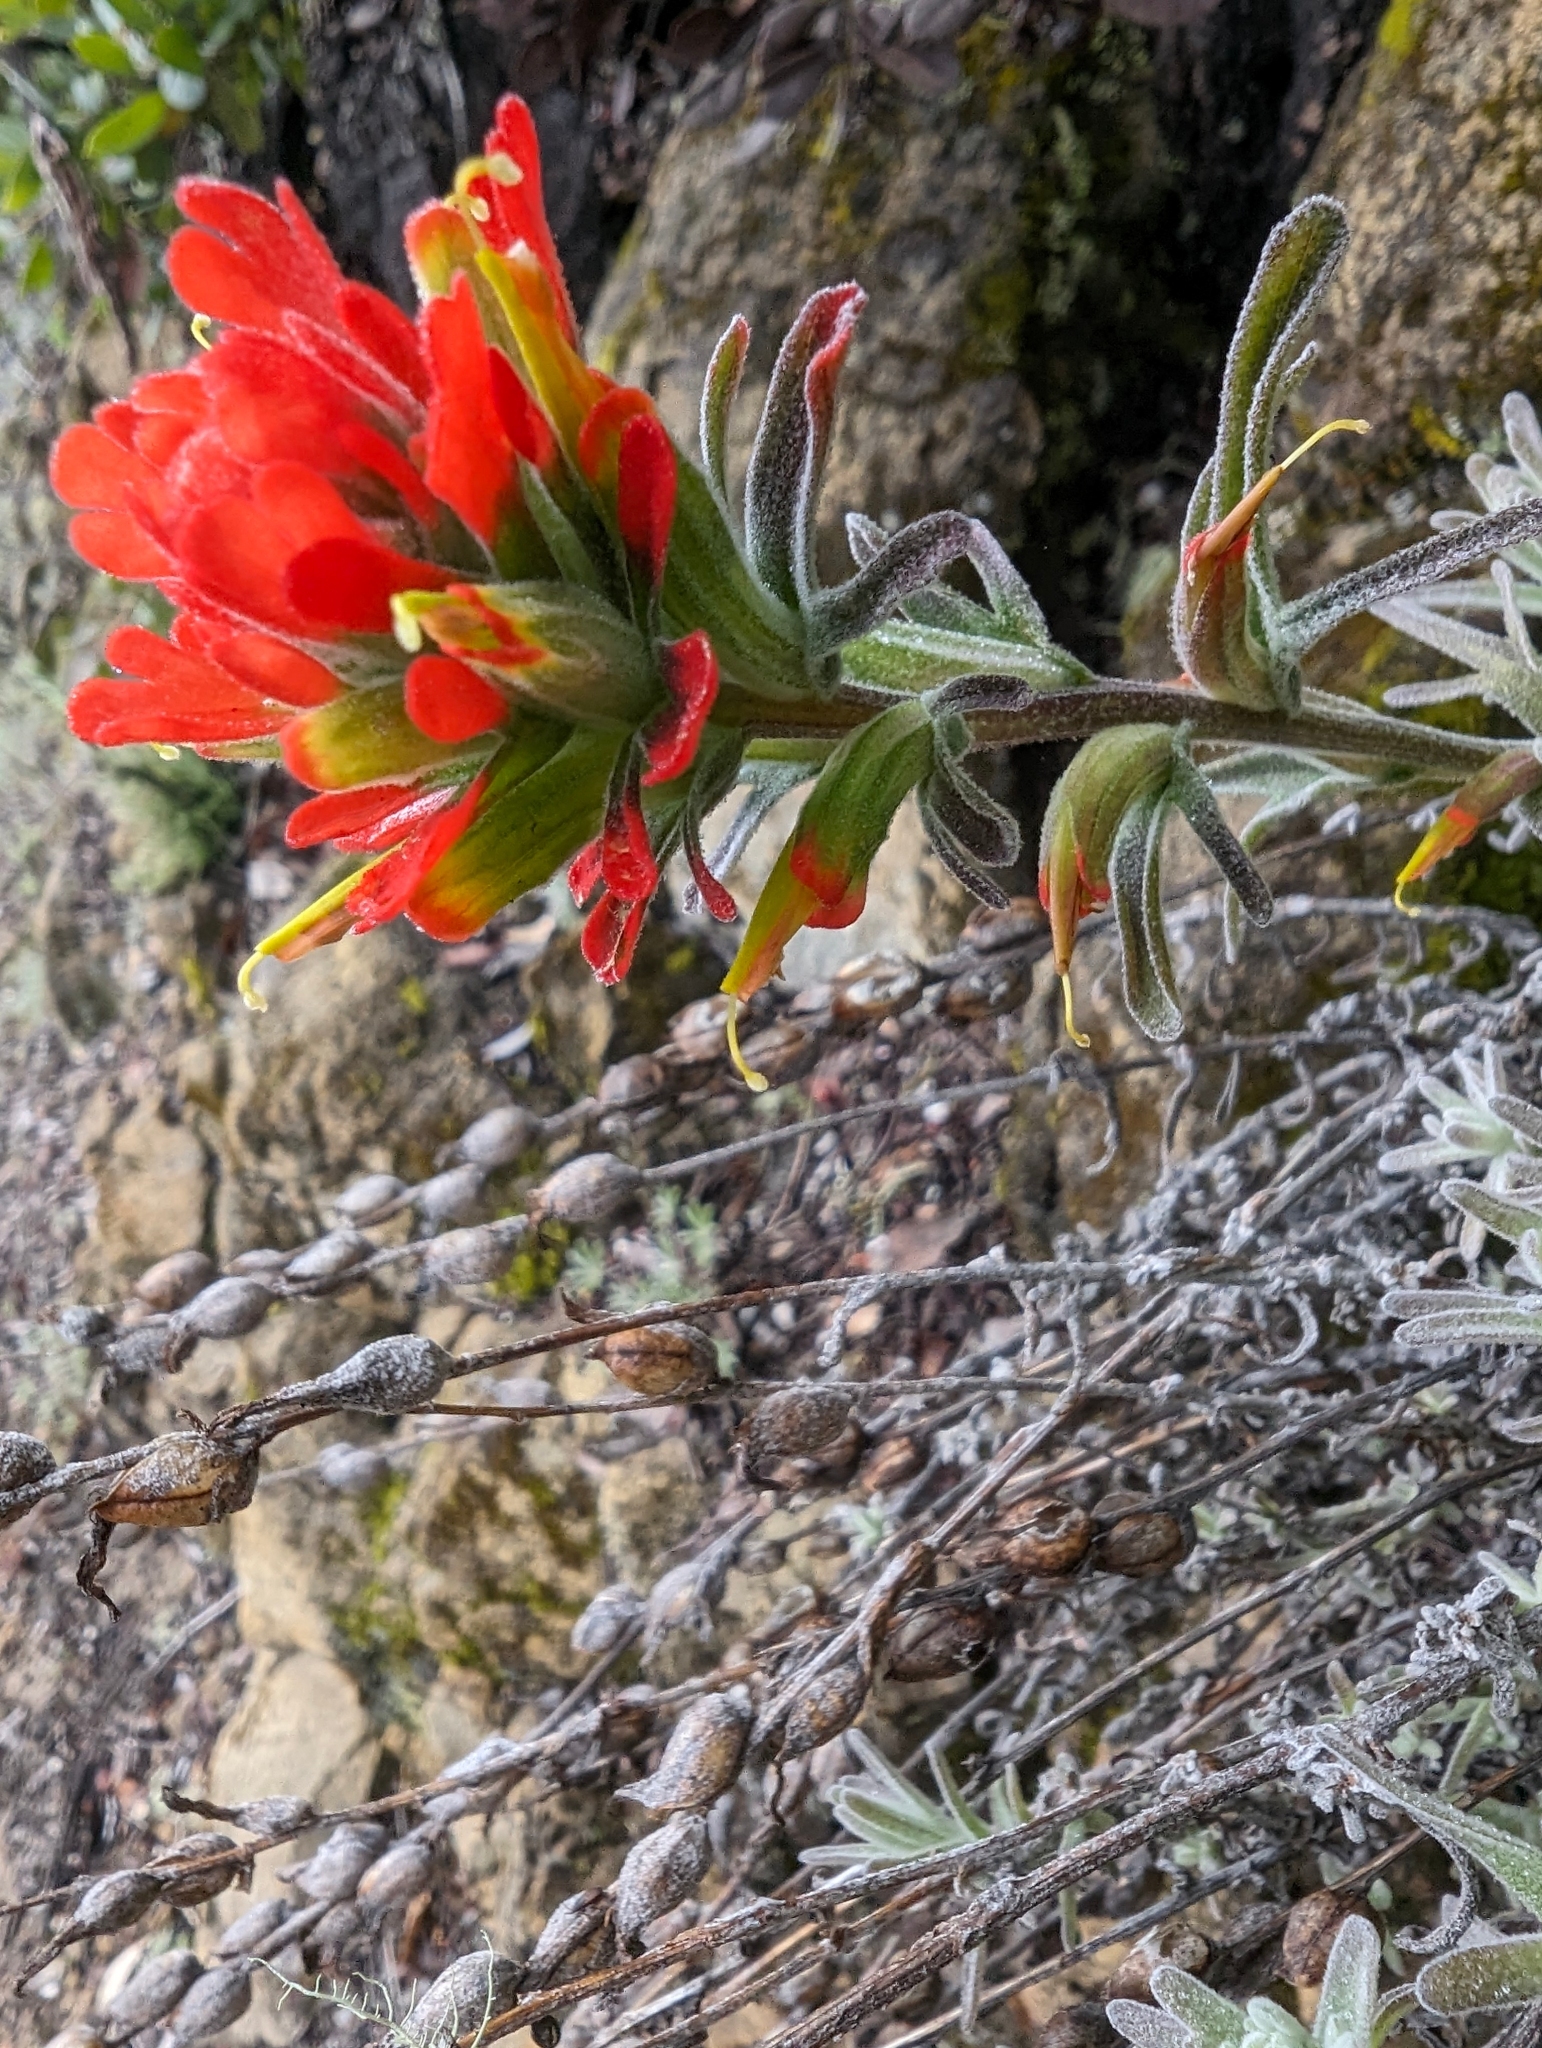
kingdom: Plantae
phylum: Tracheophyta
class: Magnoliopsida
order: Lamiales
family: Orobanchaceae
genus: Castilleja
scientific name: Castilleja foliolosa
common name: Woolly indian paintbrush
